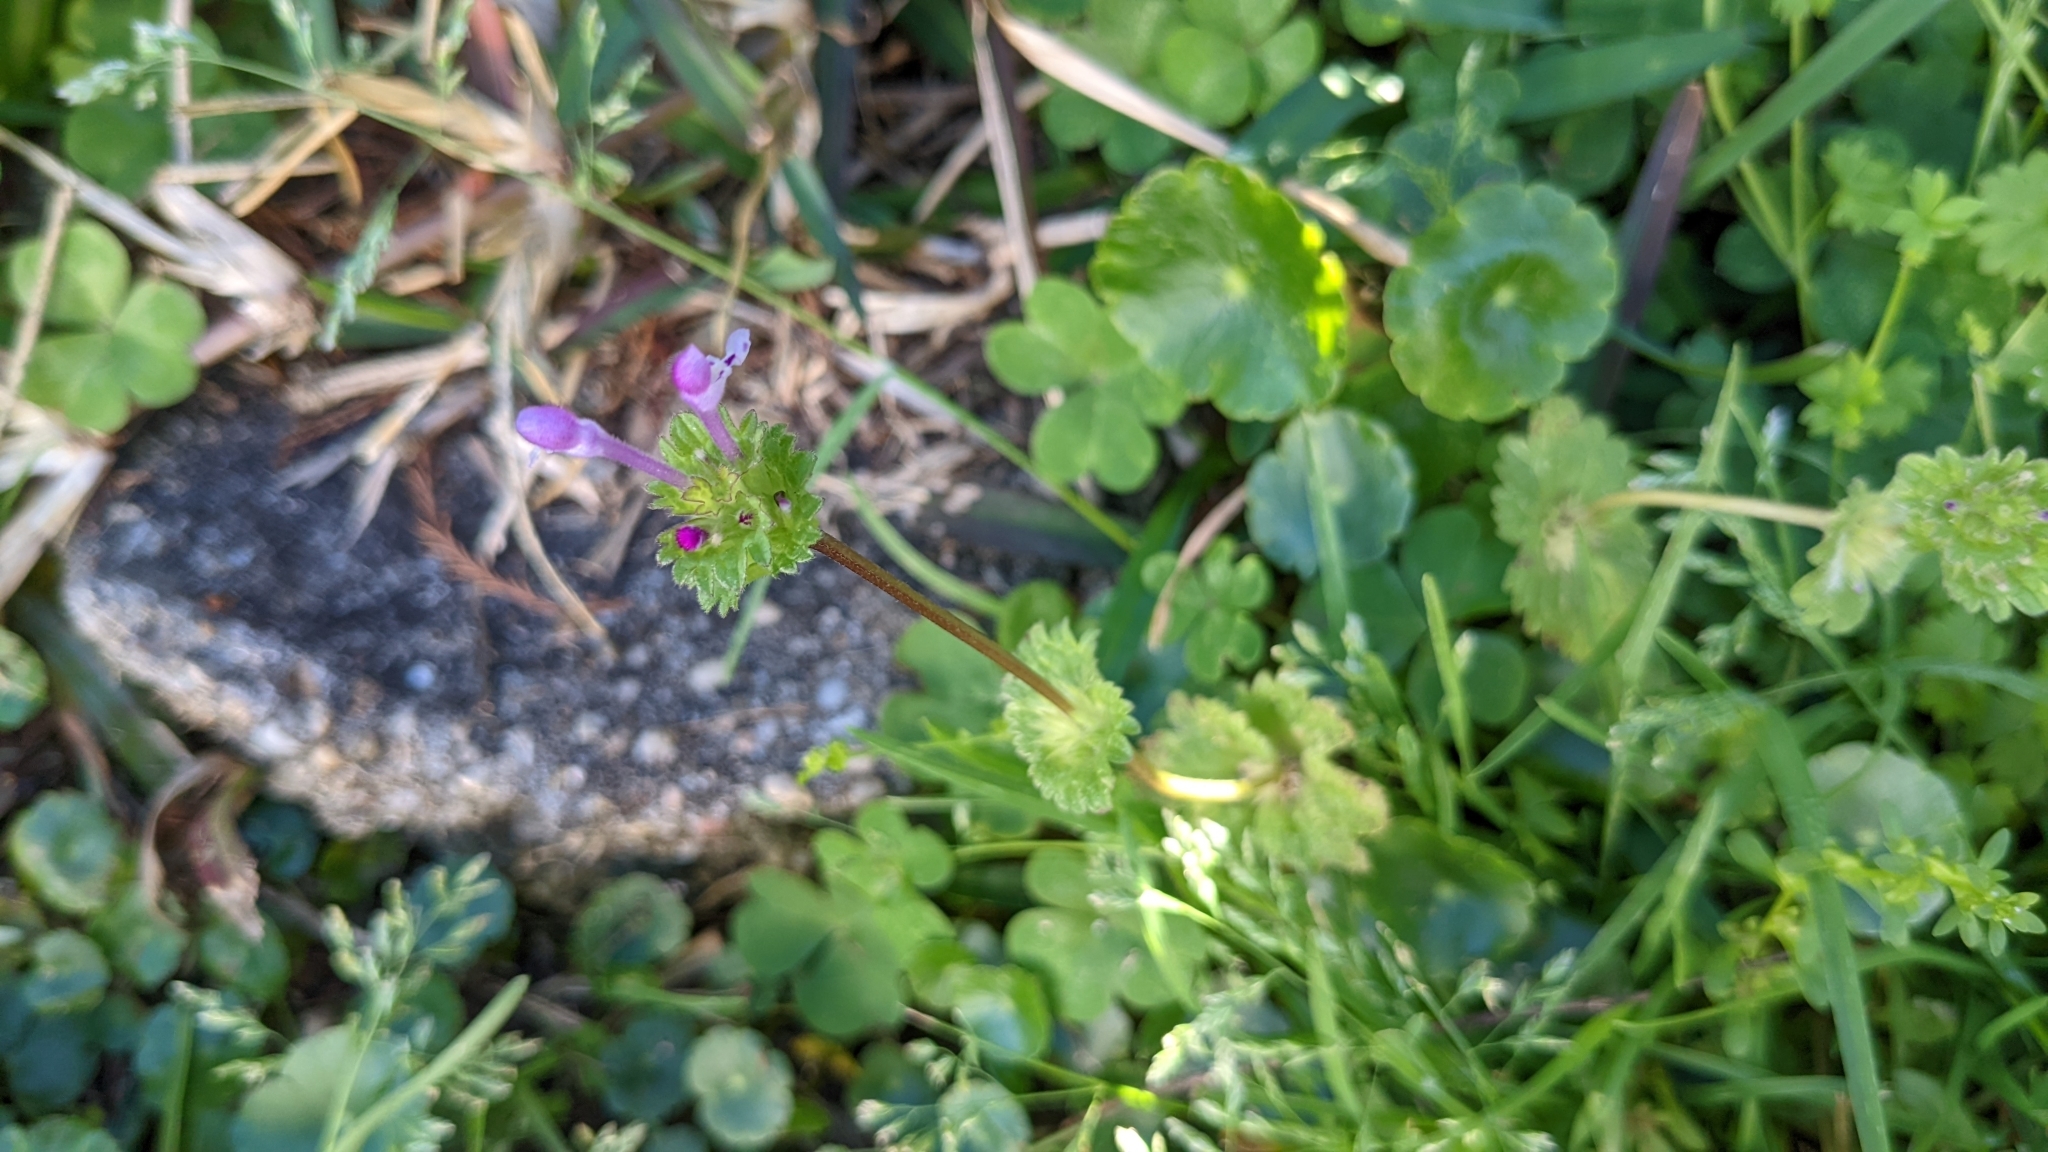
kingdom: Plantae
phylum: Tracheophyta
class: Magnoliopsida
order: Lamiales
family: Lamiaceae
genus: Lamium
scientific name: Lamium amplexicaule
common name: Henbit dead-nettle
